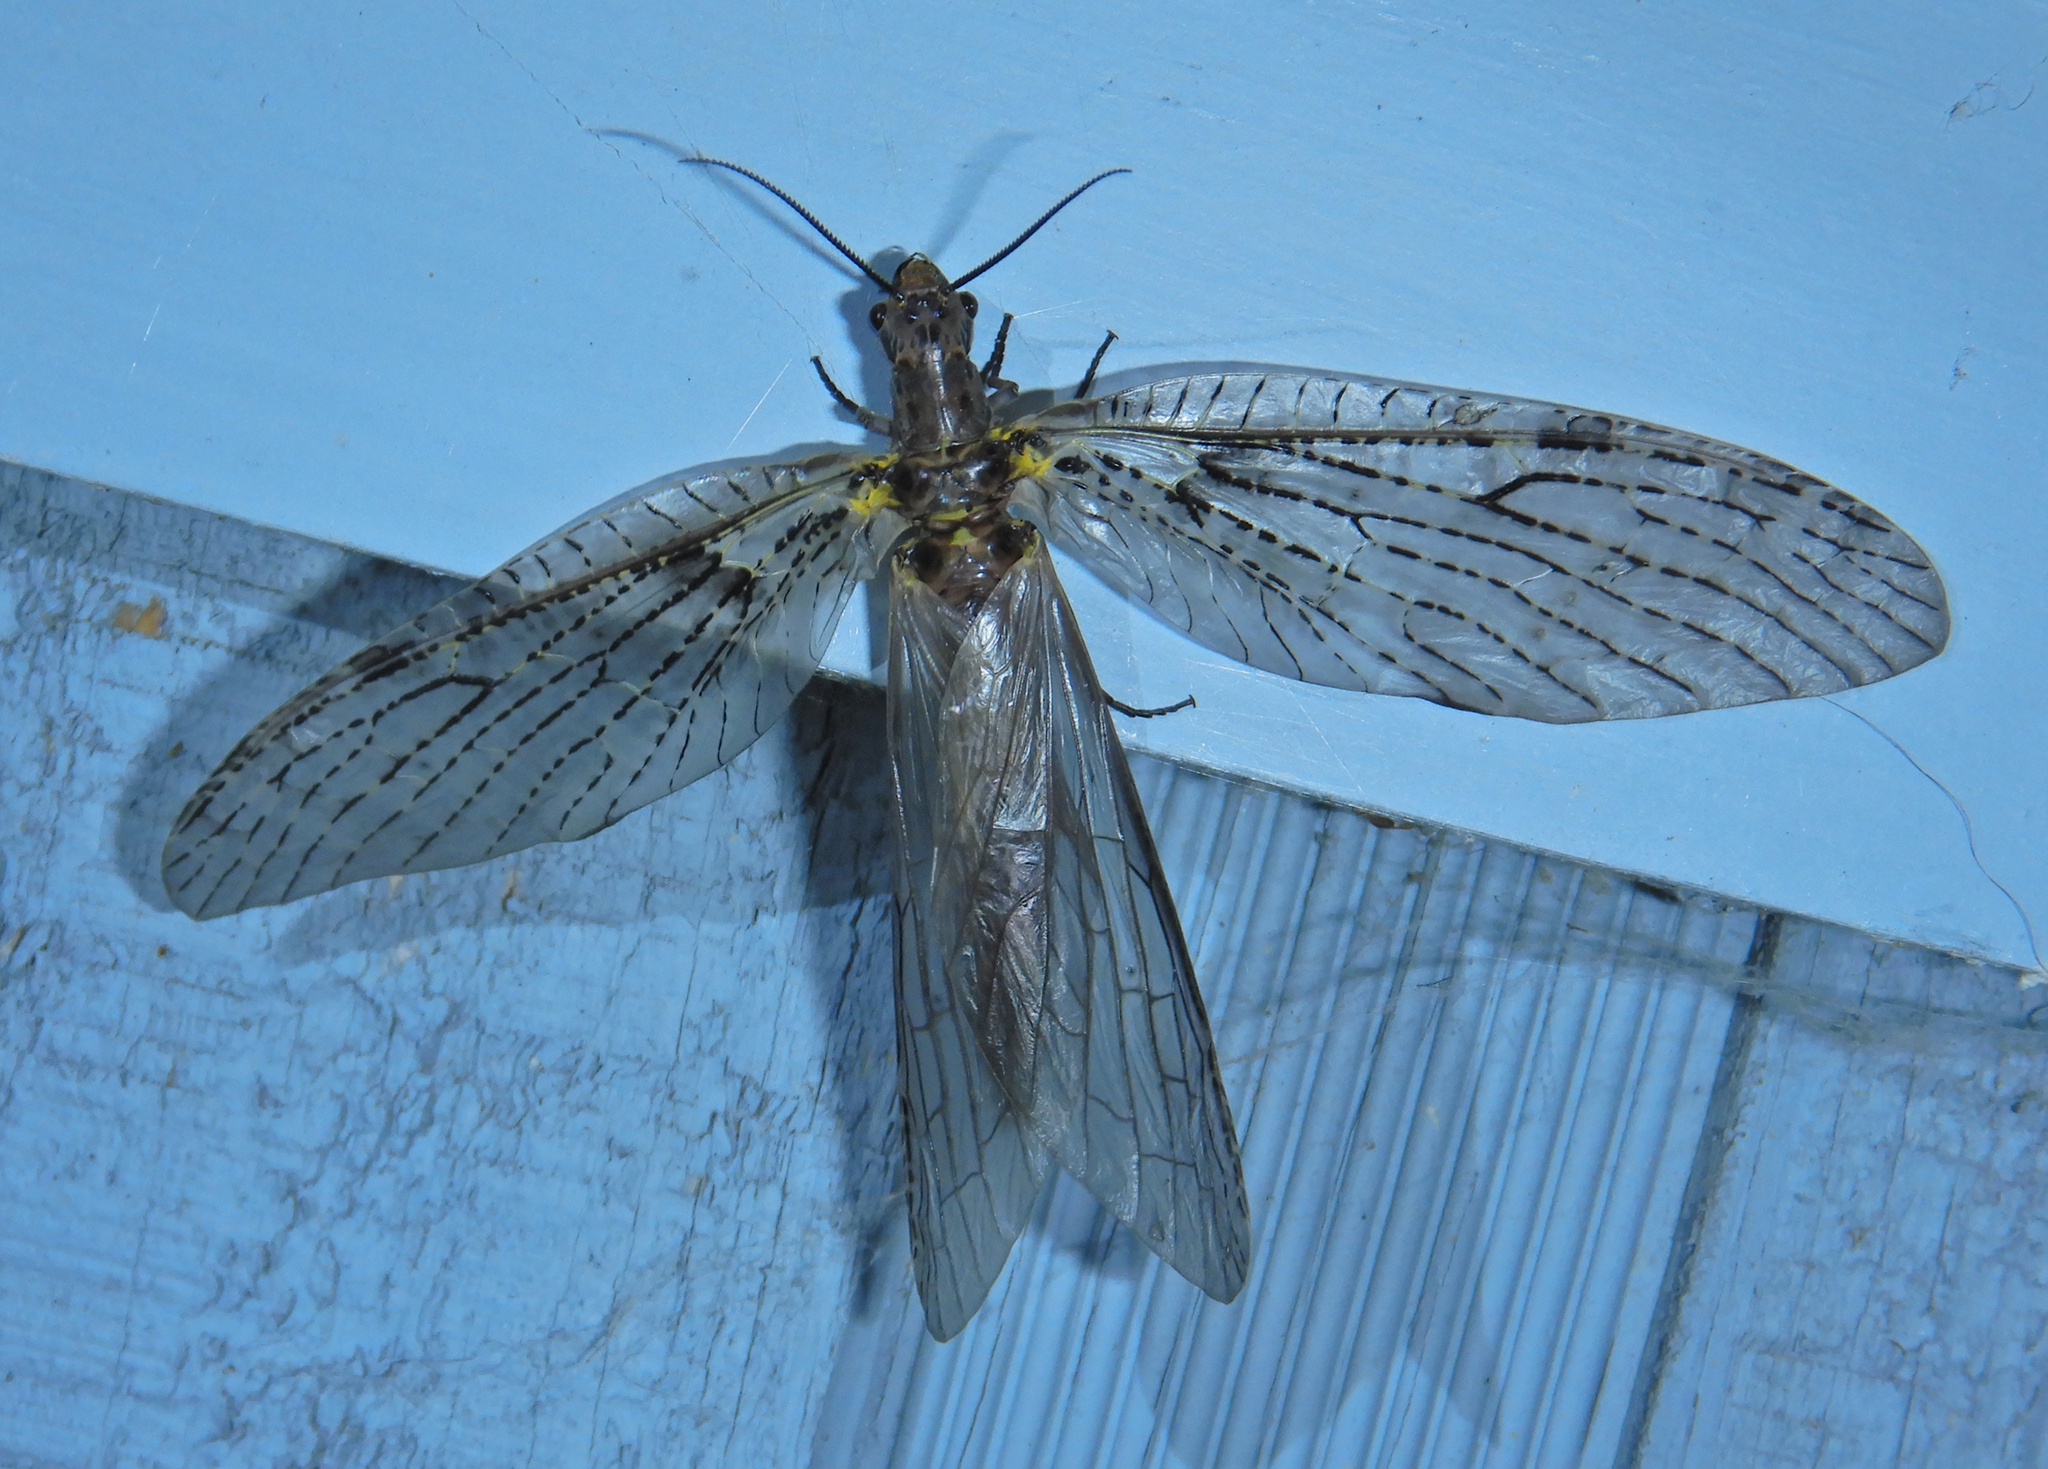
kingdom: Animalia
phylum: Arthropoda
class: Insecta
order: Megaloptera
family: Corydalidae
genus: Chauliodes
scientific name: Chauliodes rastricornis
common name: Spring fishfly
